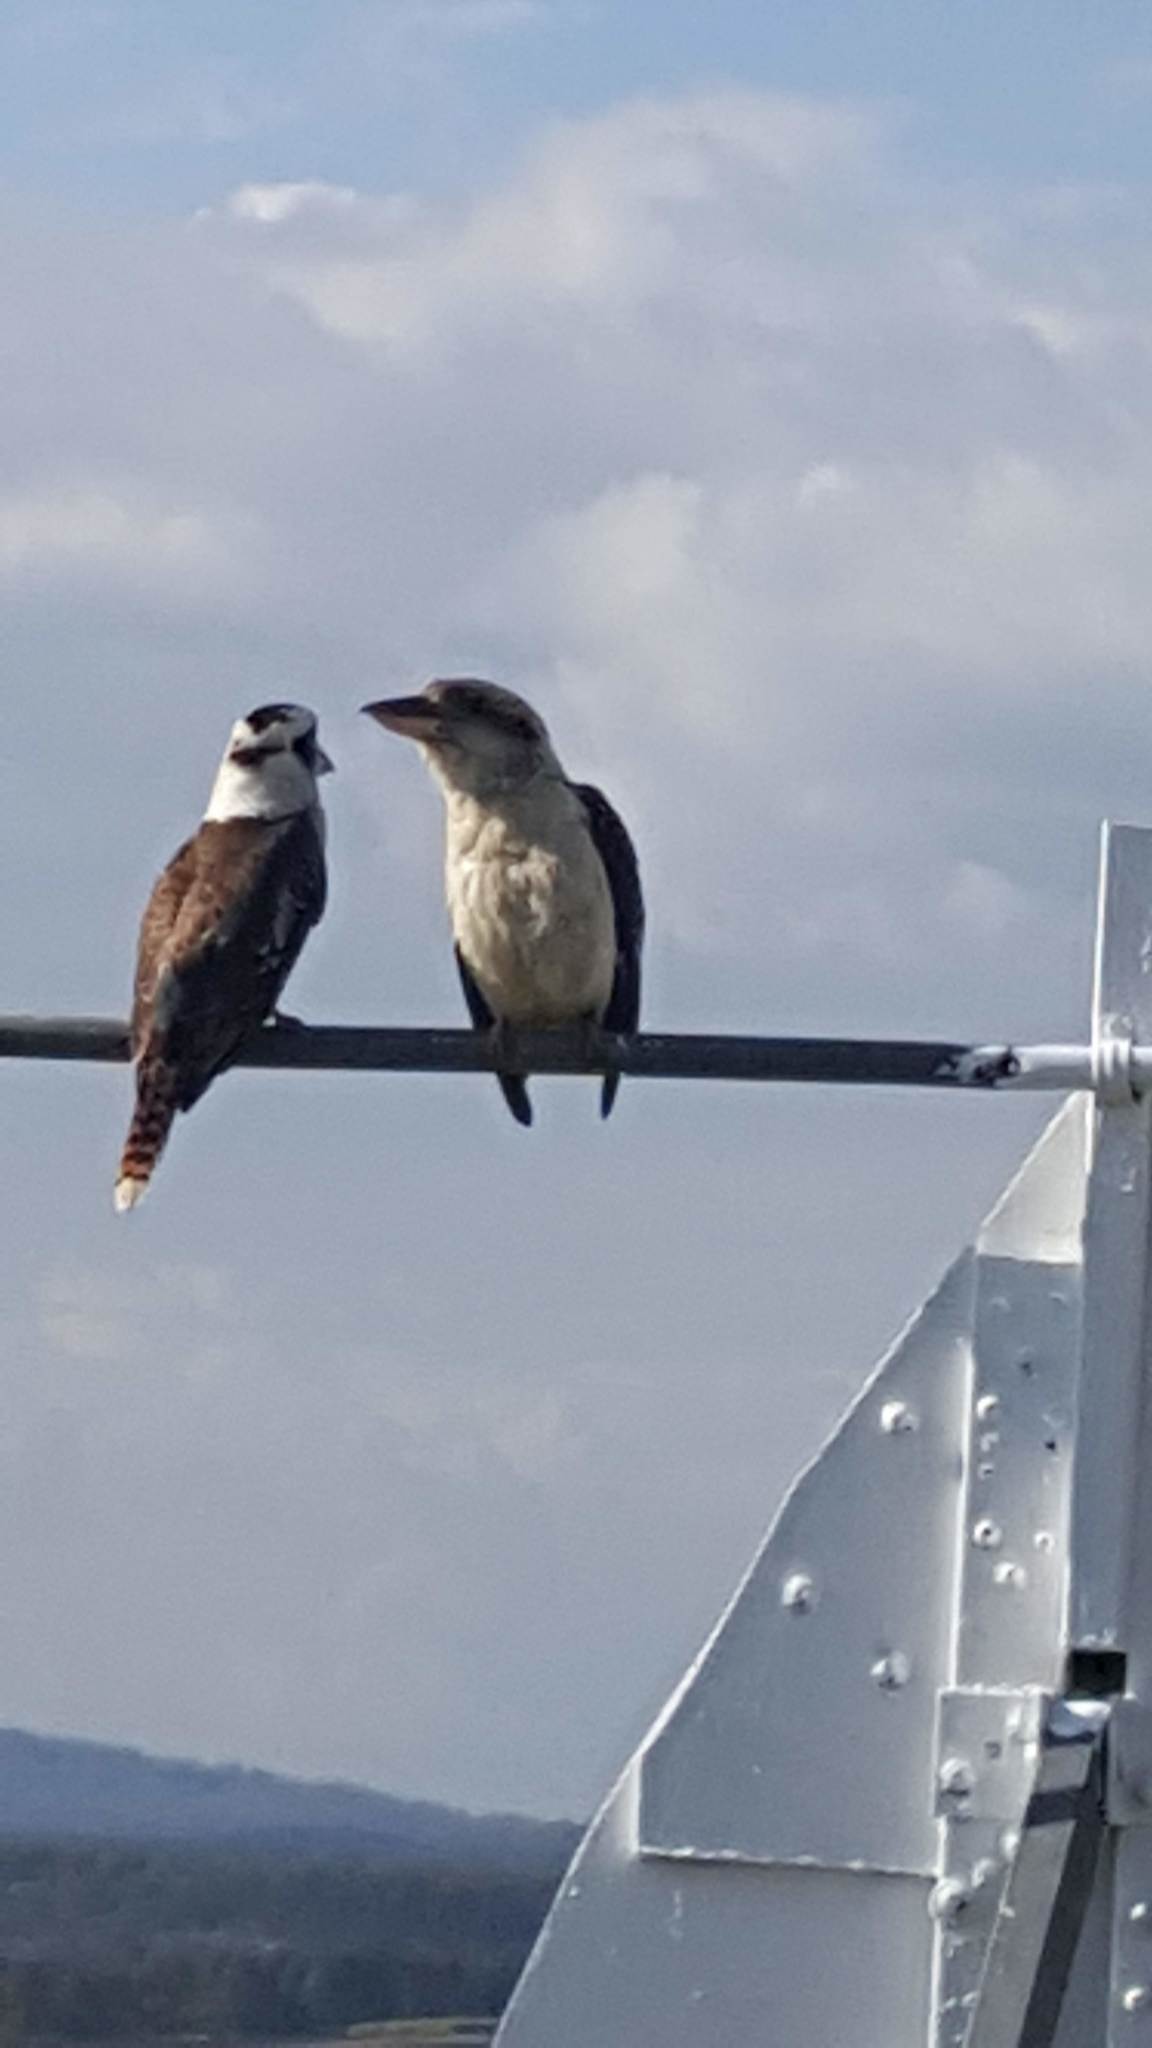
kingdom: Animalia
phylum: Chordata
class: Aves
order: Coraciiformes
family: Alcedinidae
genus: Dacelo
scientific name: Dacelo novaeguineae
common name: Laughing kookaburra
